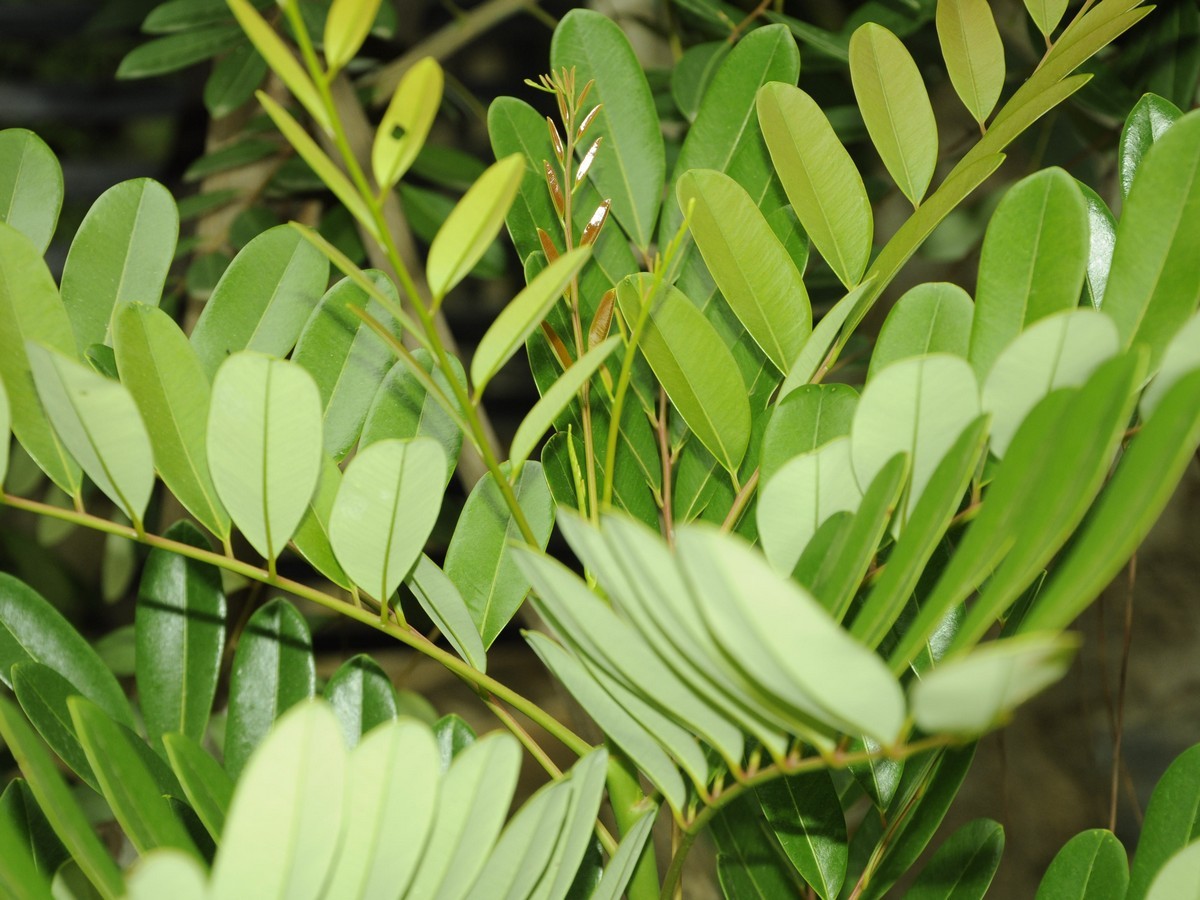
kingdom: Plantae
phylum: Tracheophyta
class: Magnoliopsida
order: Sapindales
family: Simaroubaceae
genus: Simarouba
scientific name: Simarouba amara
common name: Bitterwood
